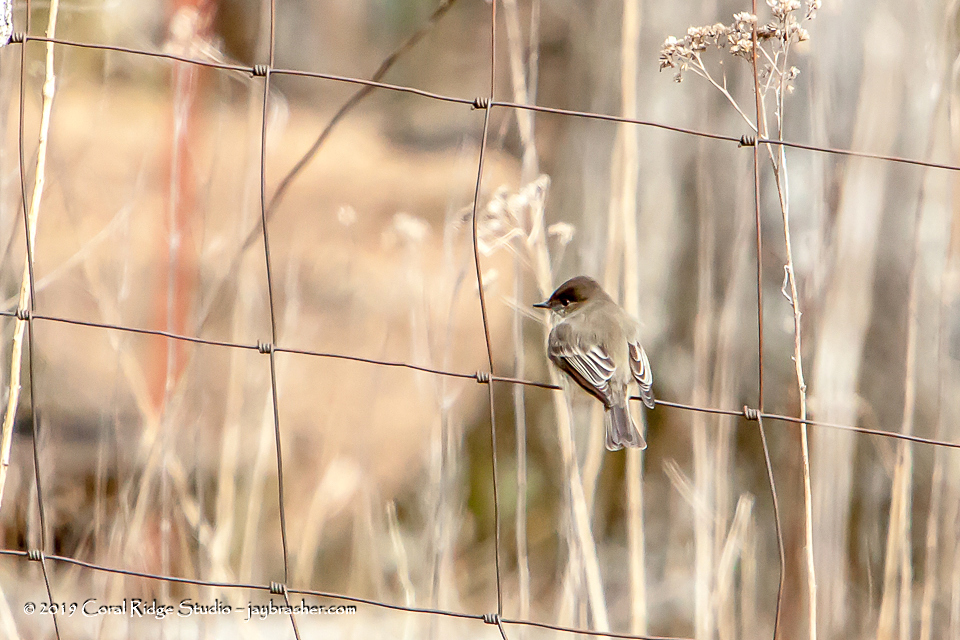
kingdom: Animalia
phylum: Chordata
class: Aves
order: Passeriformes
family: Tyrannidae
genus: Sayornis
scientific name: Sayornis phoebe
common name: Eastern phoebe
